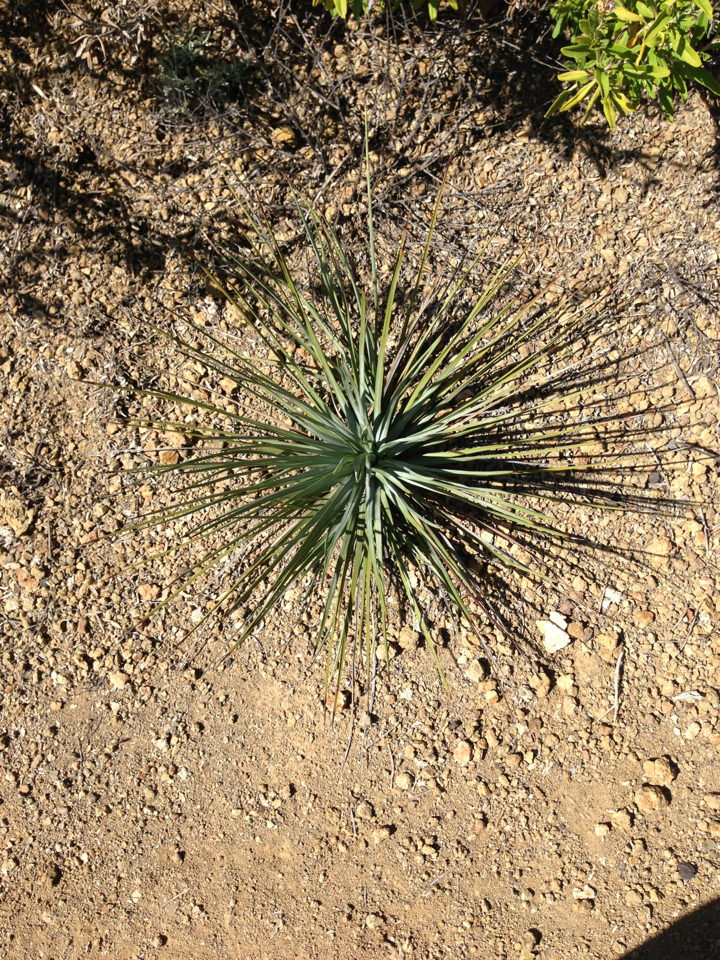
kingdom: Plantae
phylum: Tracheophyta
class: Liliopsida
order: Asparagales
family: Asparagaceae
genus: Hesperoyucca
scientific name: Hesperoyucca whipplei
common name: Our lord's-candle
